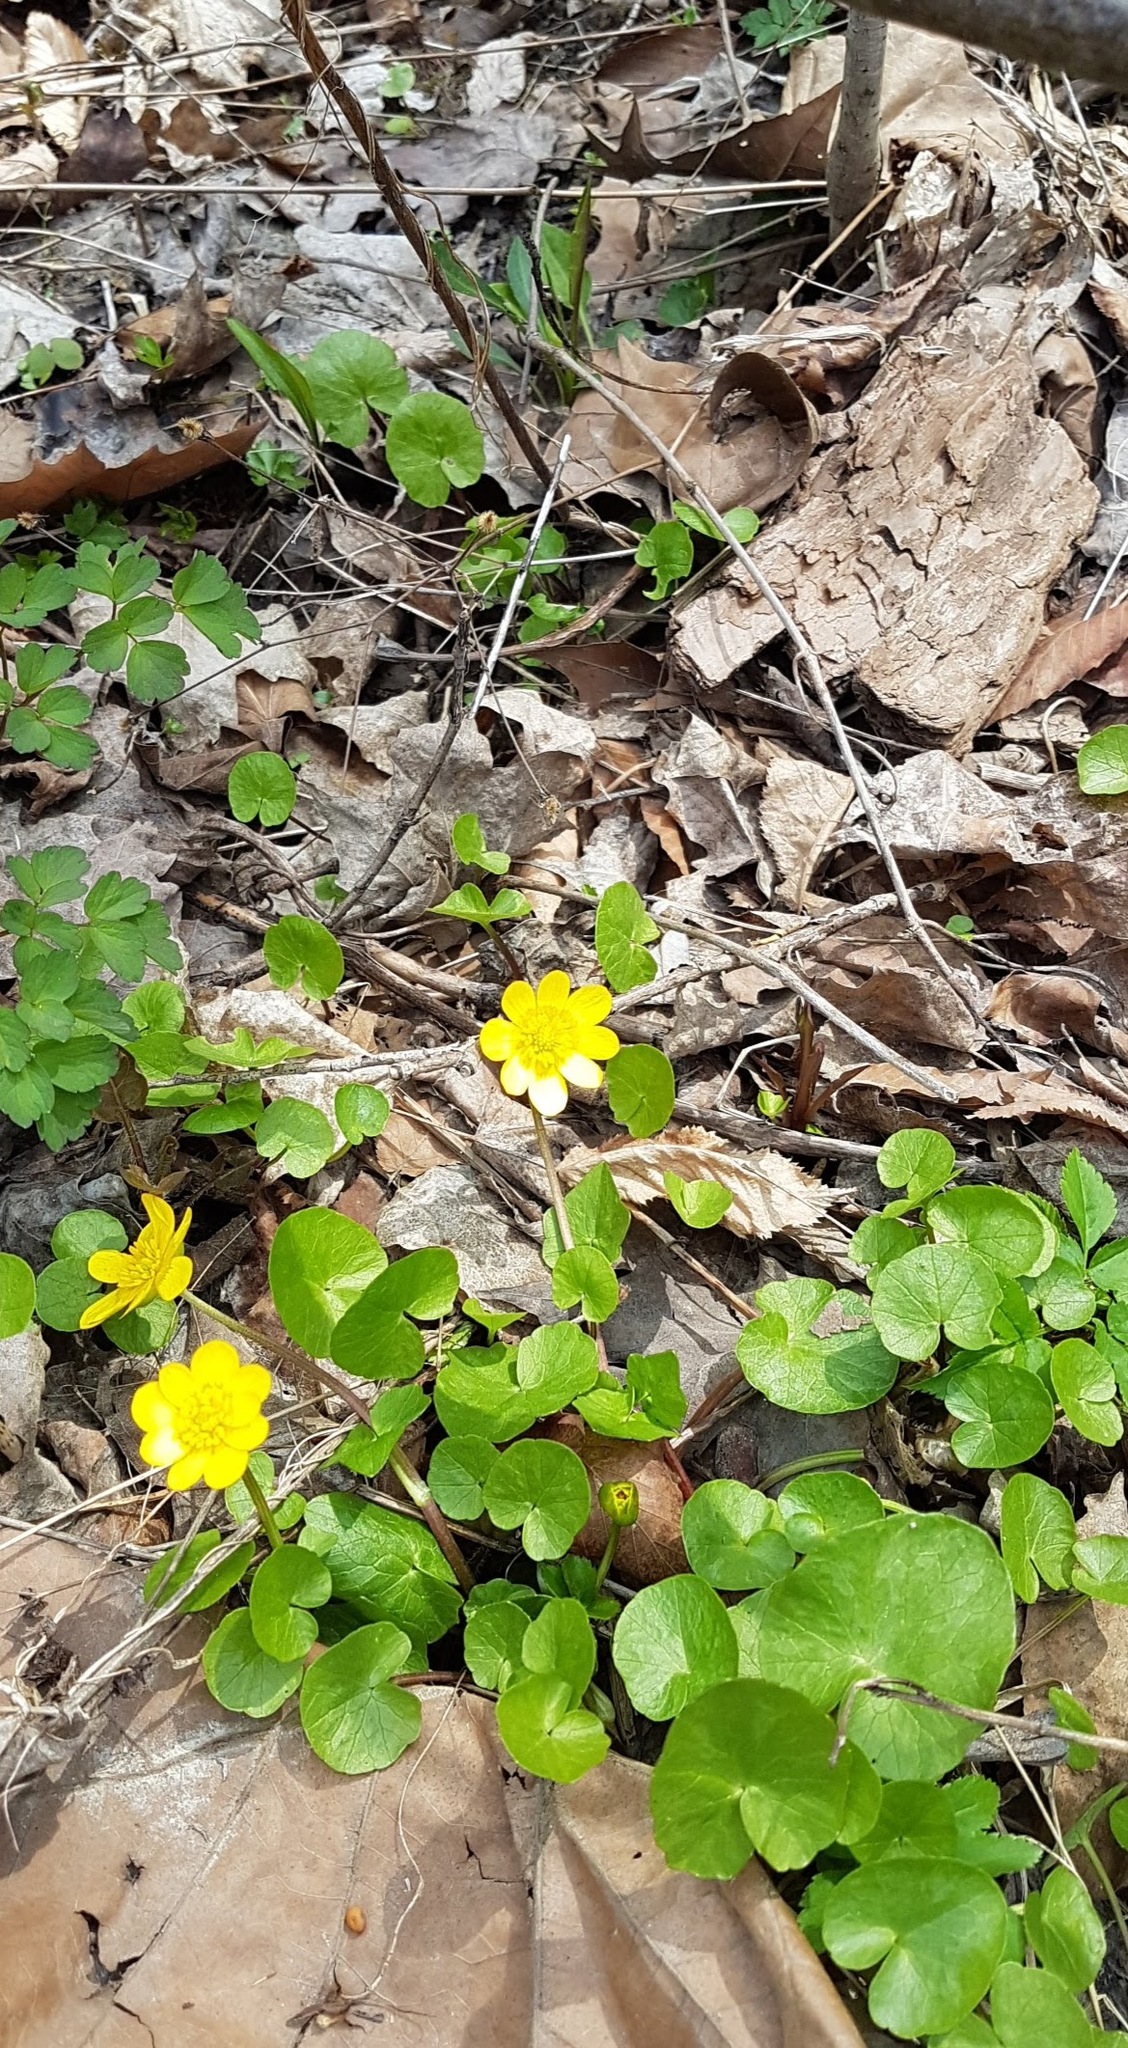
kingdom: Plantae
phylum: Tracheophyta
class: Magnoliopsida
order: Ranunculales
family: Ranunculaceae
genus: Ficaria
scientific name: Ficaria verna
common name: Lesser celandine
